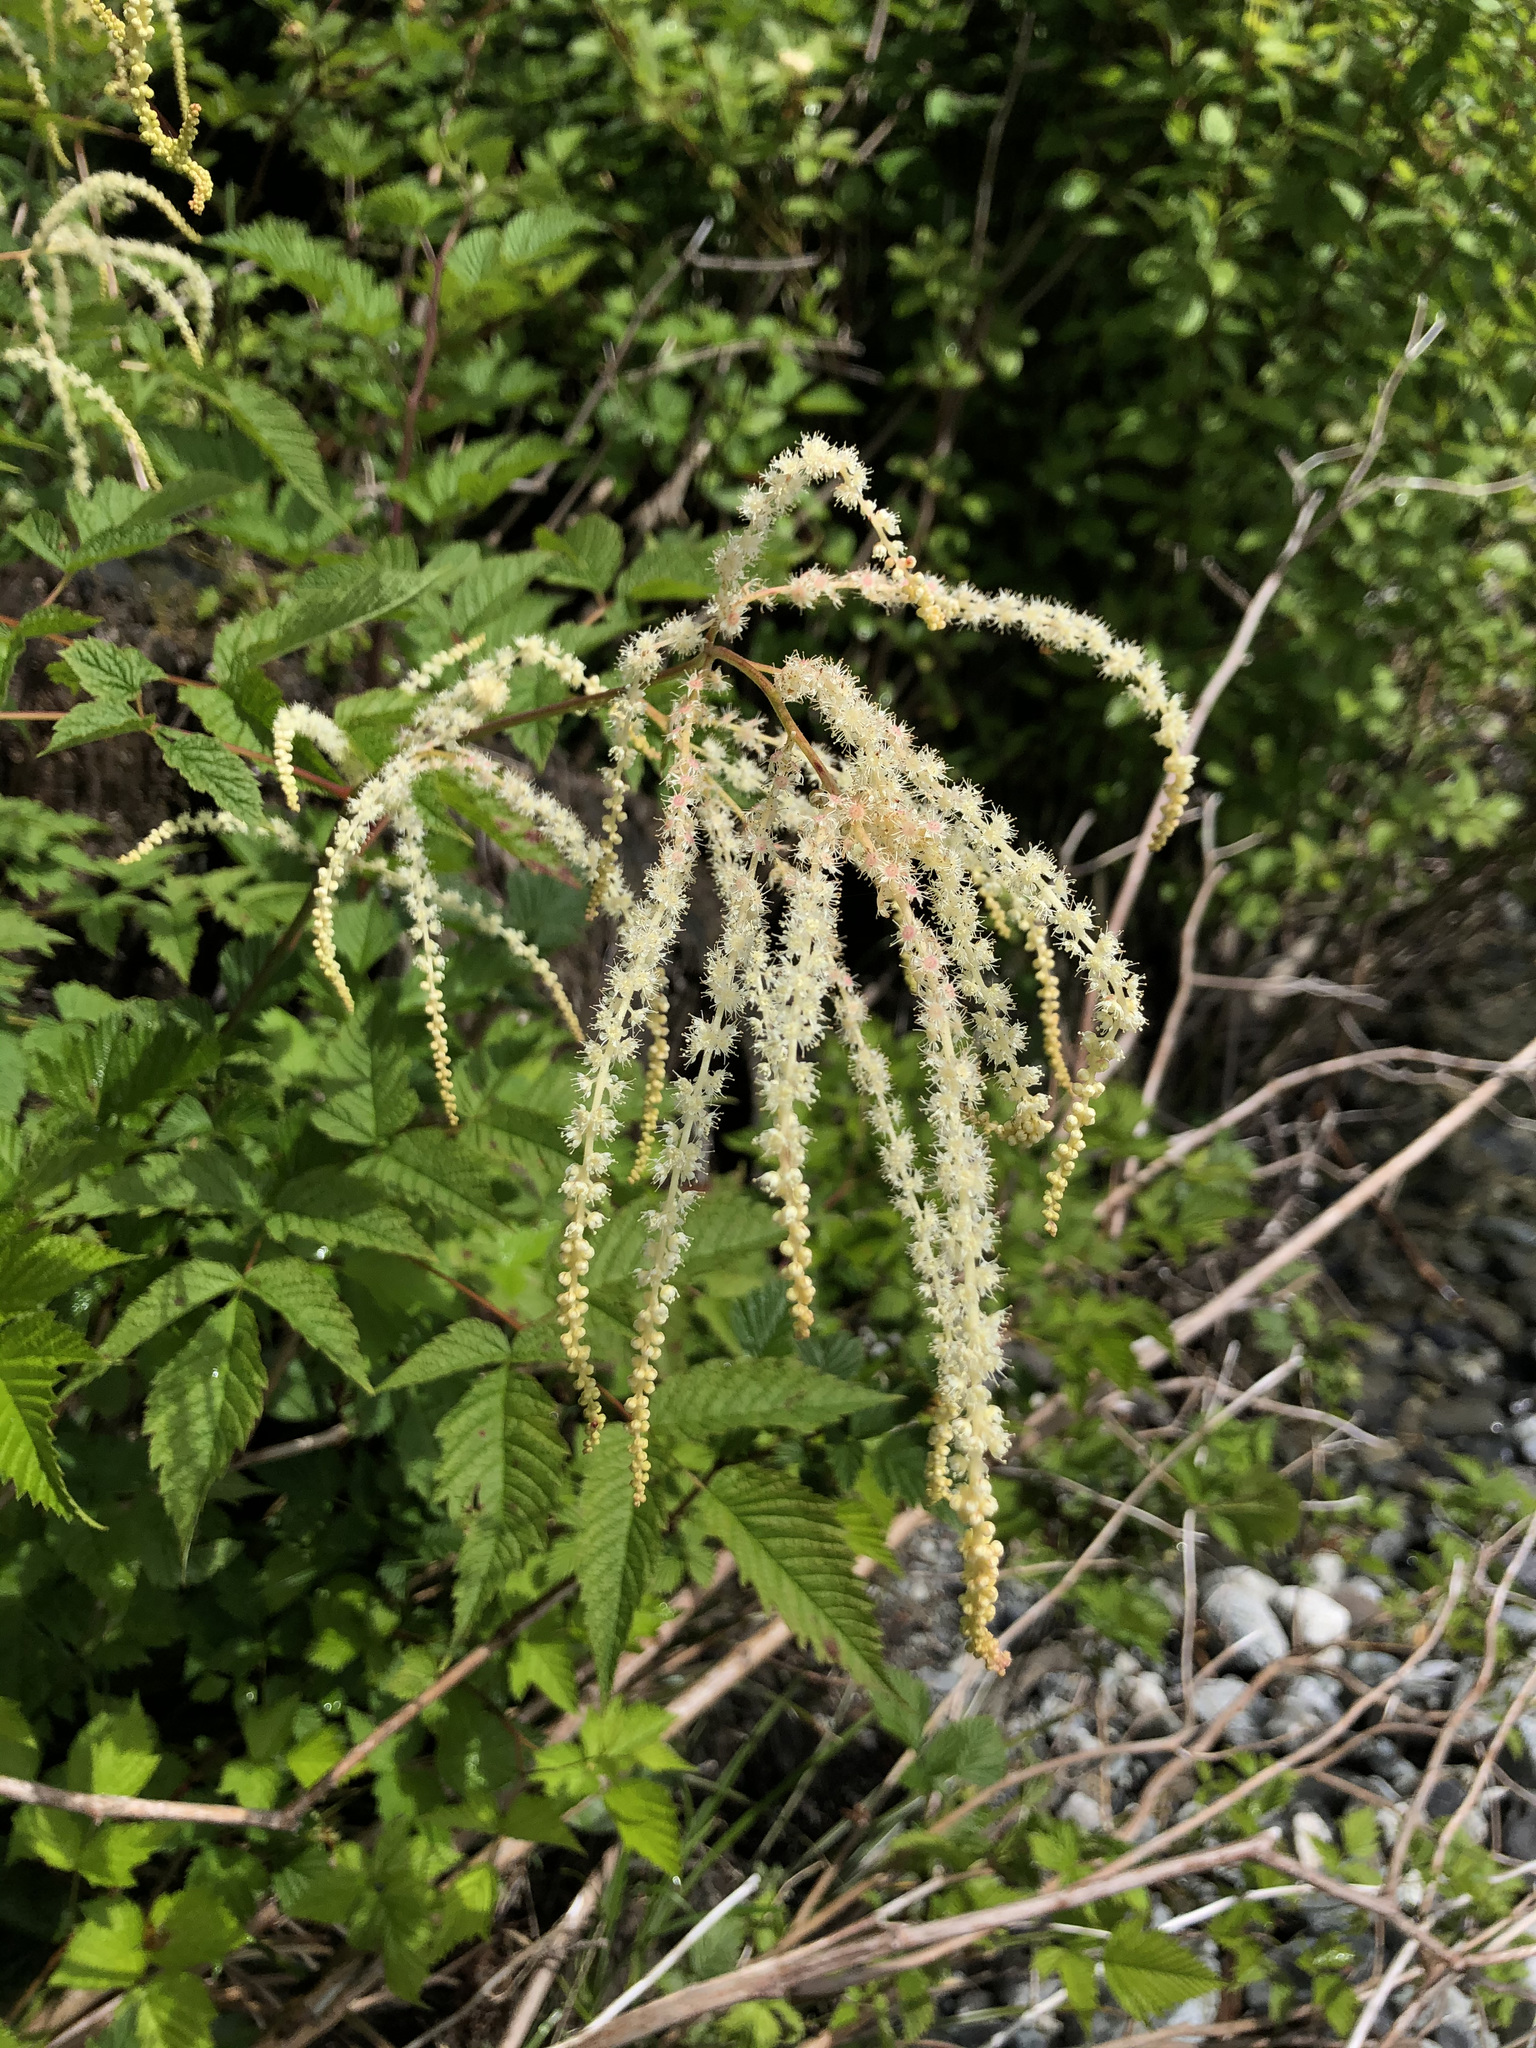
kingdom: Plantae
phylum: Tracheophyta
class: Magnoliopsida
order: Rosales
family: Rosaceae
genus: Aruncus
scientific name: Aruncus dioicus
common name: Buck's-beard
